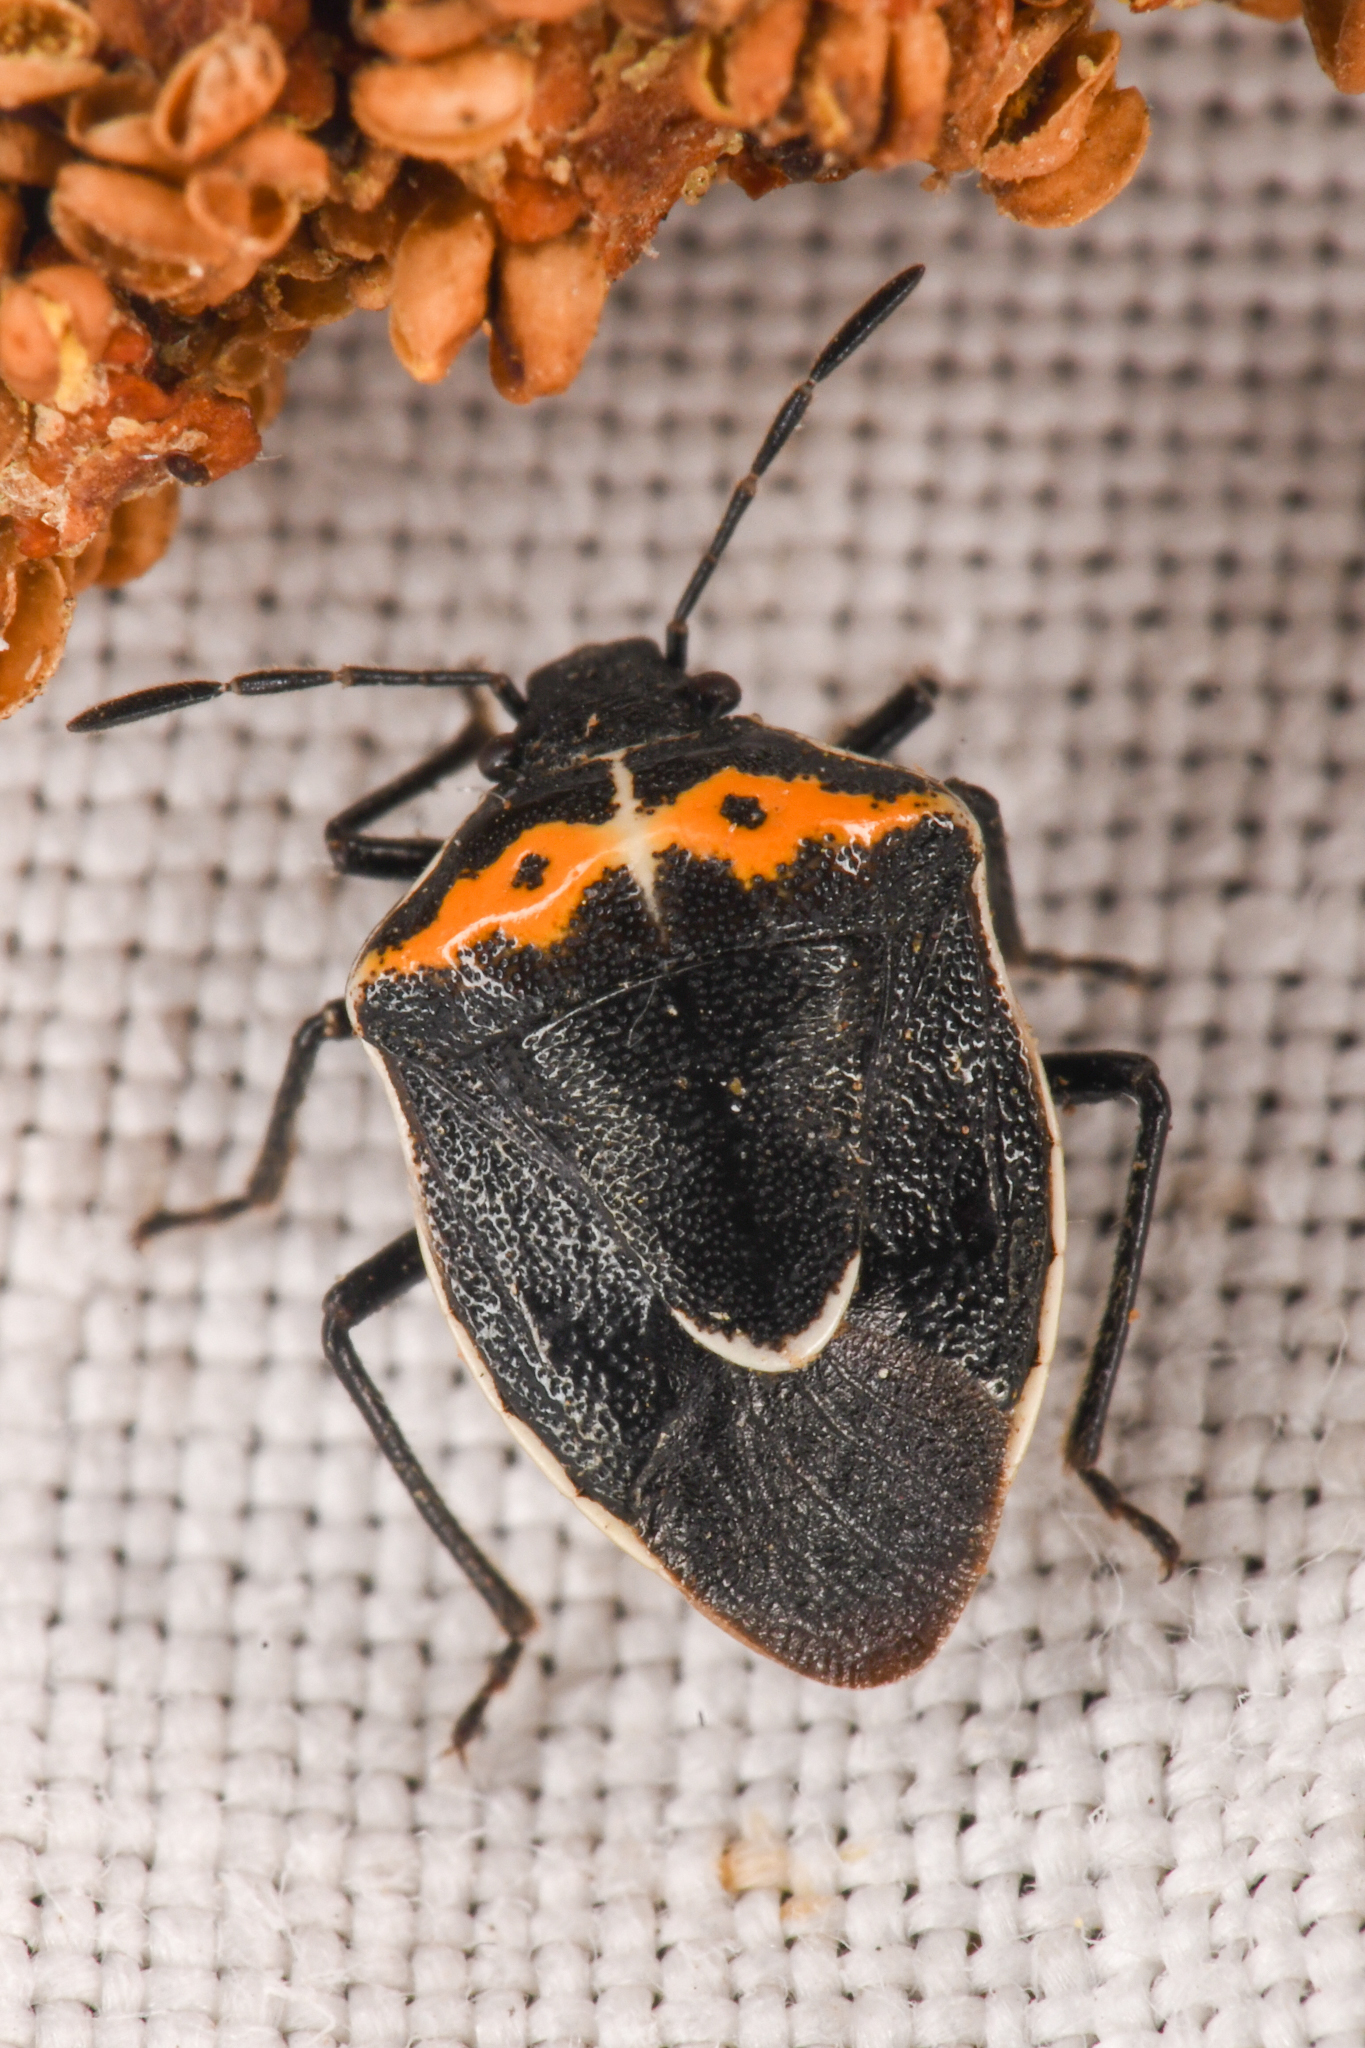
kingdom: Animalia
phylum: Arthropoda
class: Insecta
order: Hemiptera
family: Pentatomidae
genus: Cosmopepla
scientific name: Cosmopepla conspicillaris
